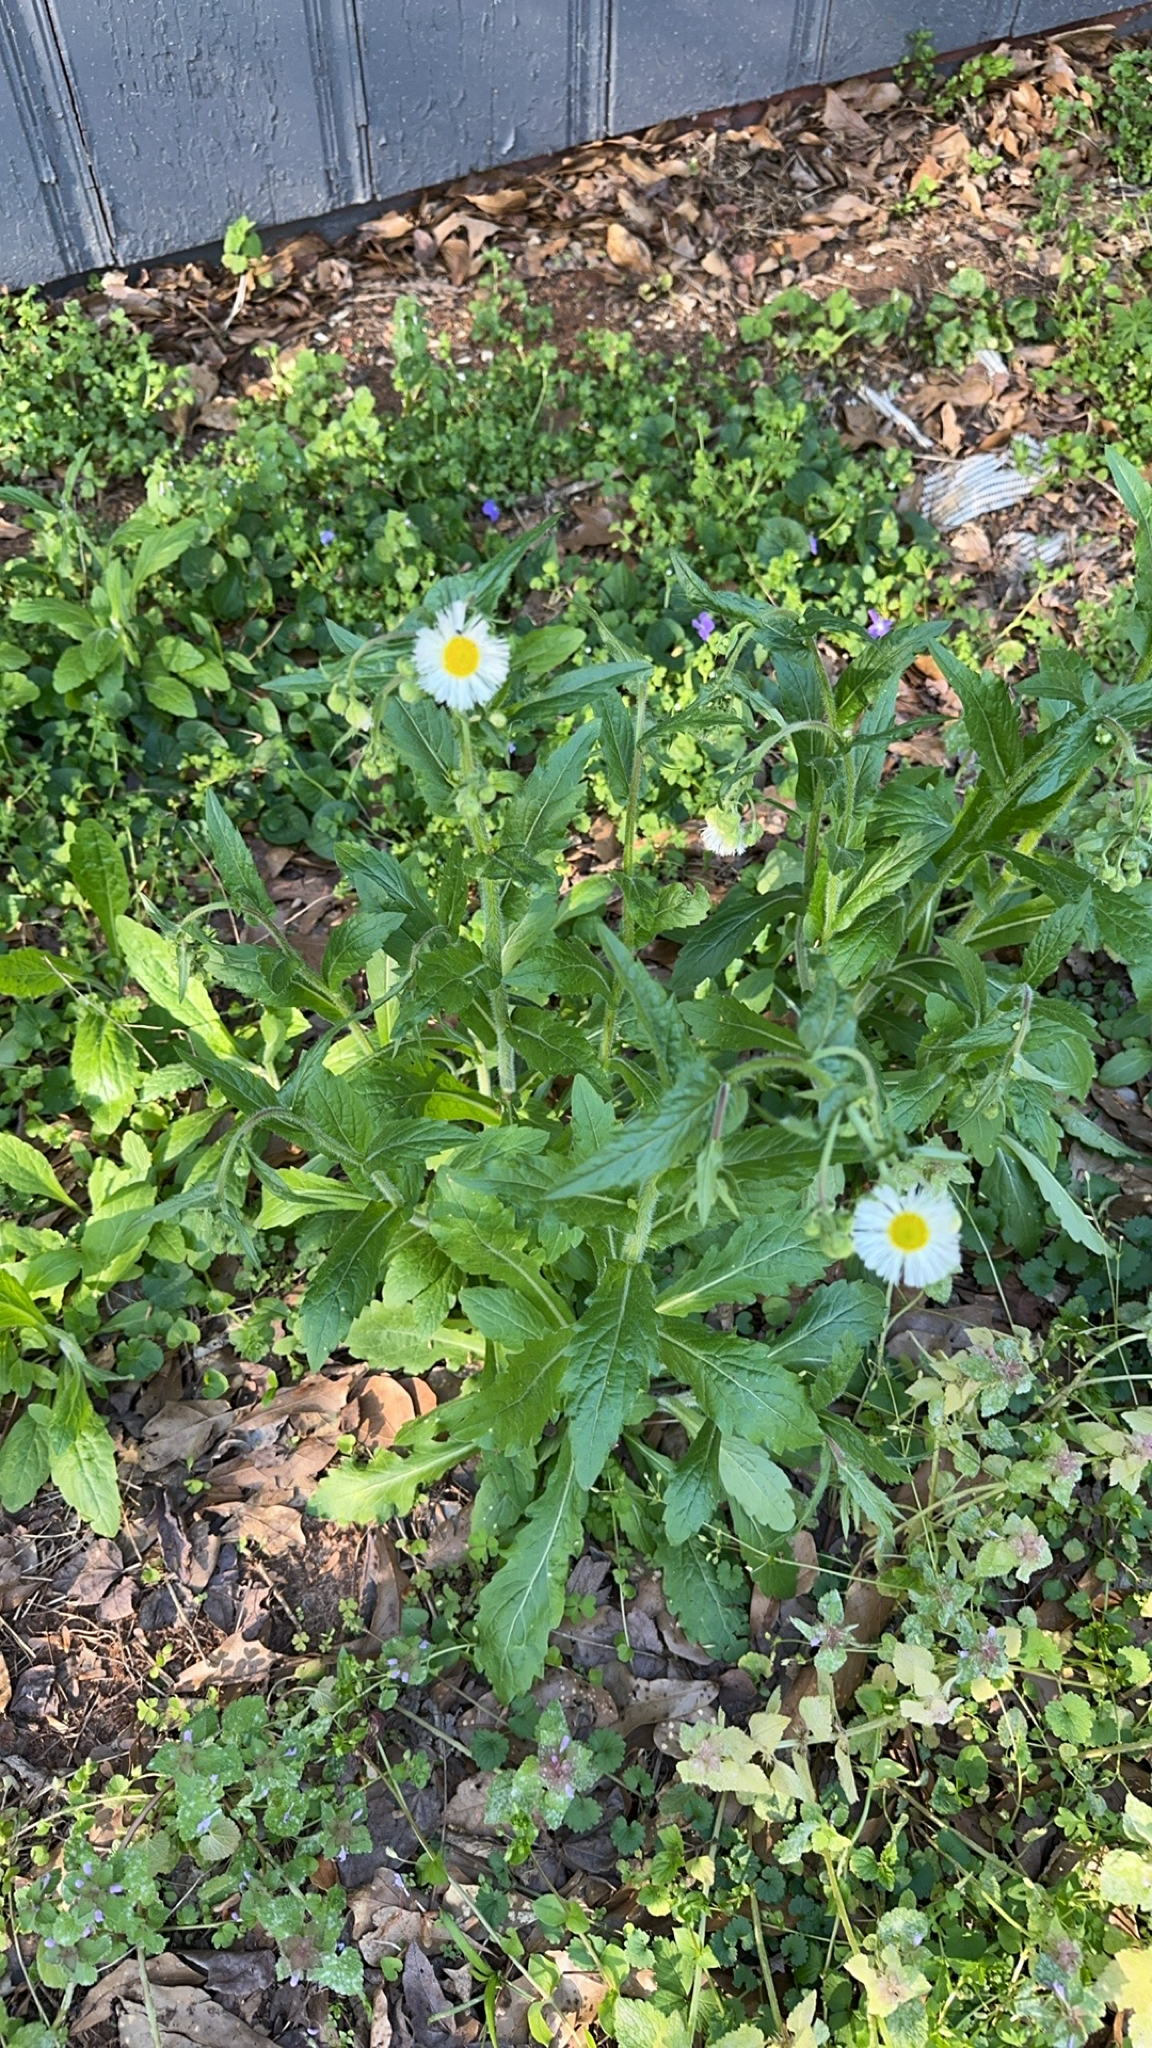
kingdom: Plantae
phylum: Tracheophyta
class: Magnoliopsida
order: Asterales
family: Asteraceae
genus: Erigeron
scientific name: Erigeron philadelphicus
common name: Robin's-plantain
